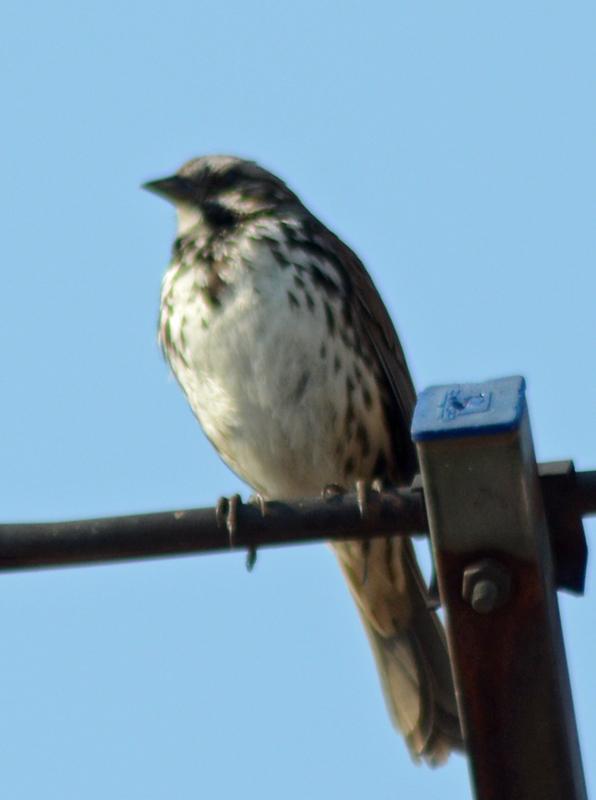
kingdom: Animalia
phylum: Chordata
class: Aves
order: Passeriformes
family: Passerellidae
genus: Melospiza
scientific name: Melospiza melodia
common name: Song sparrow
